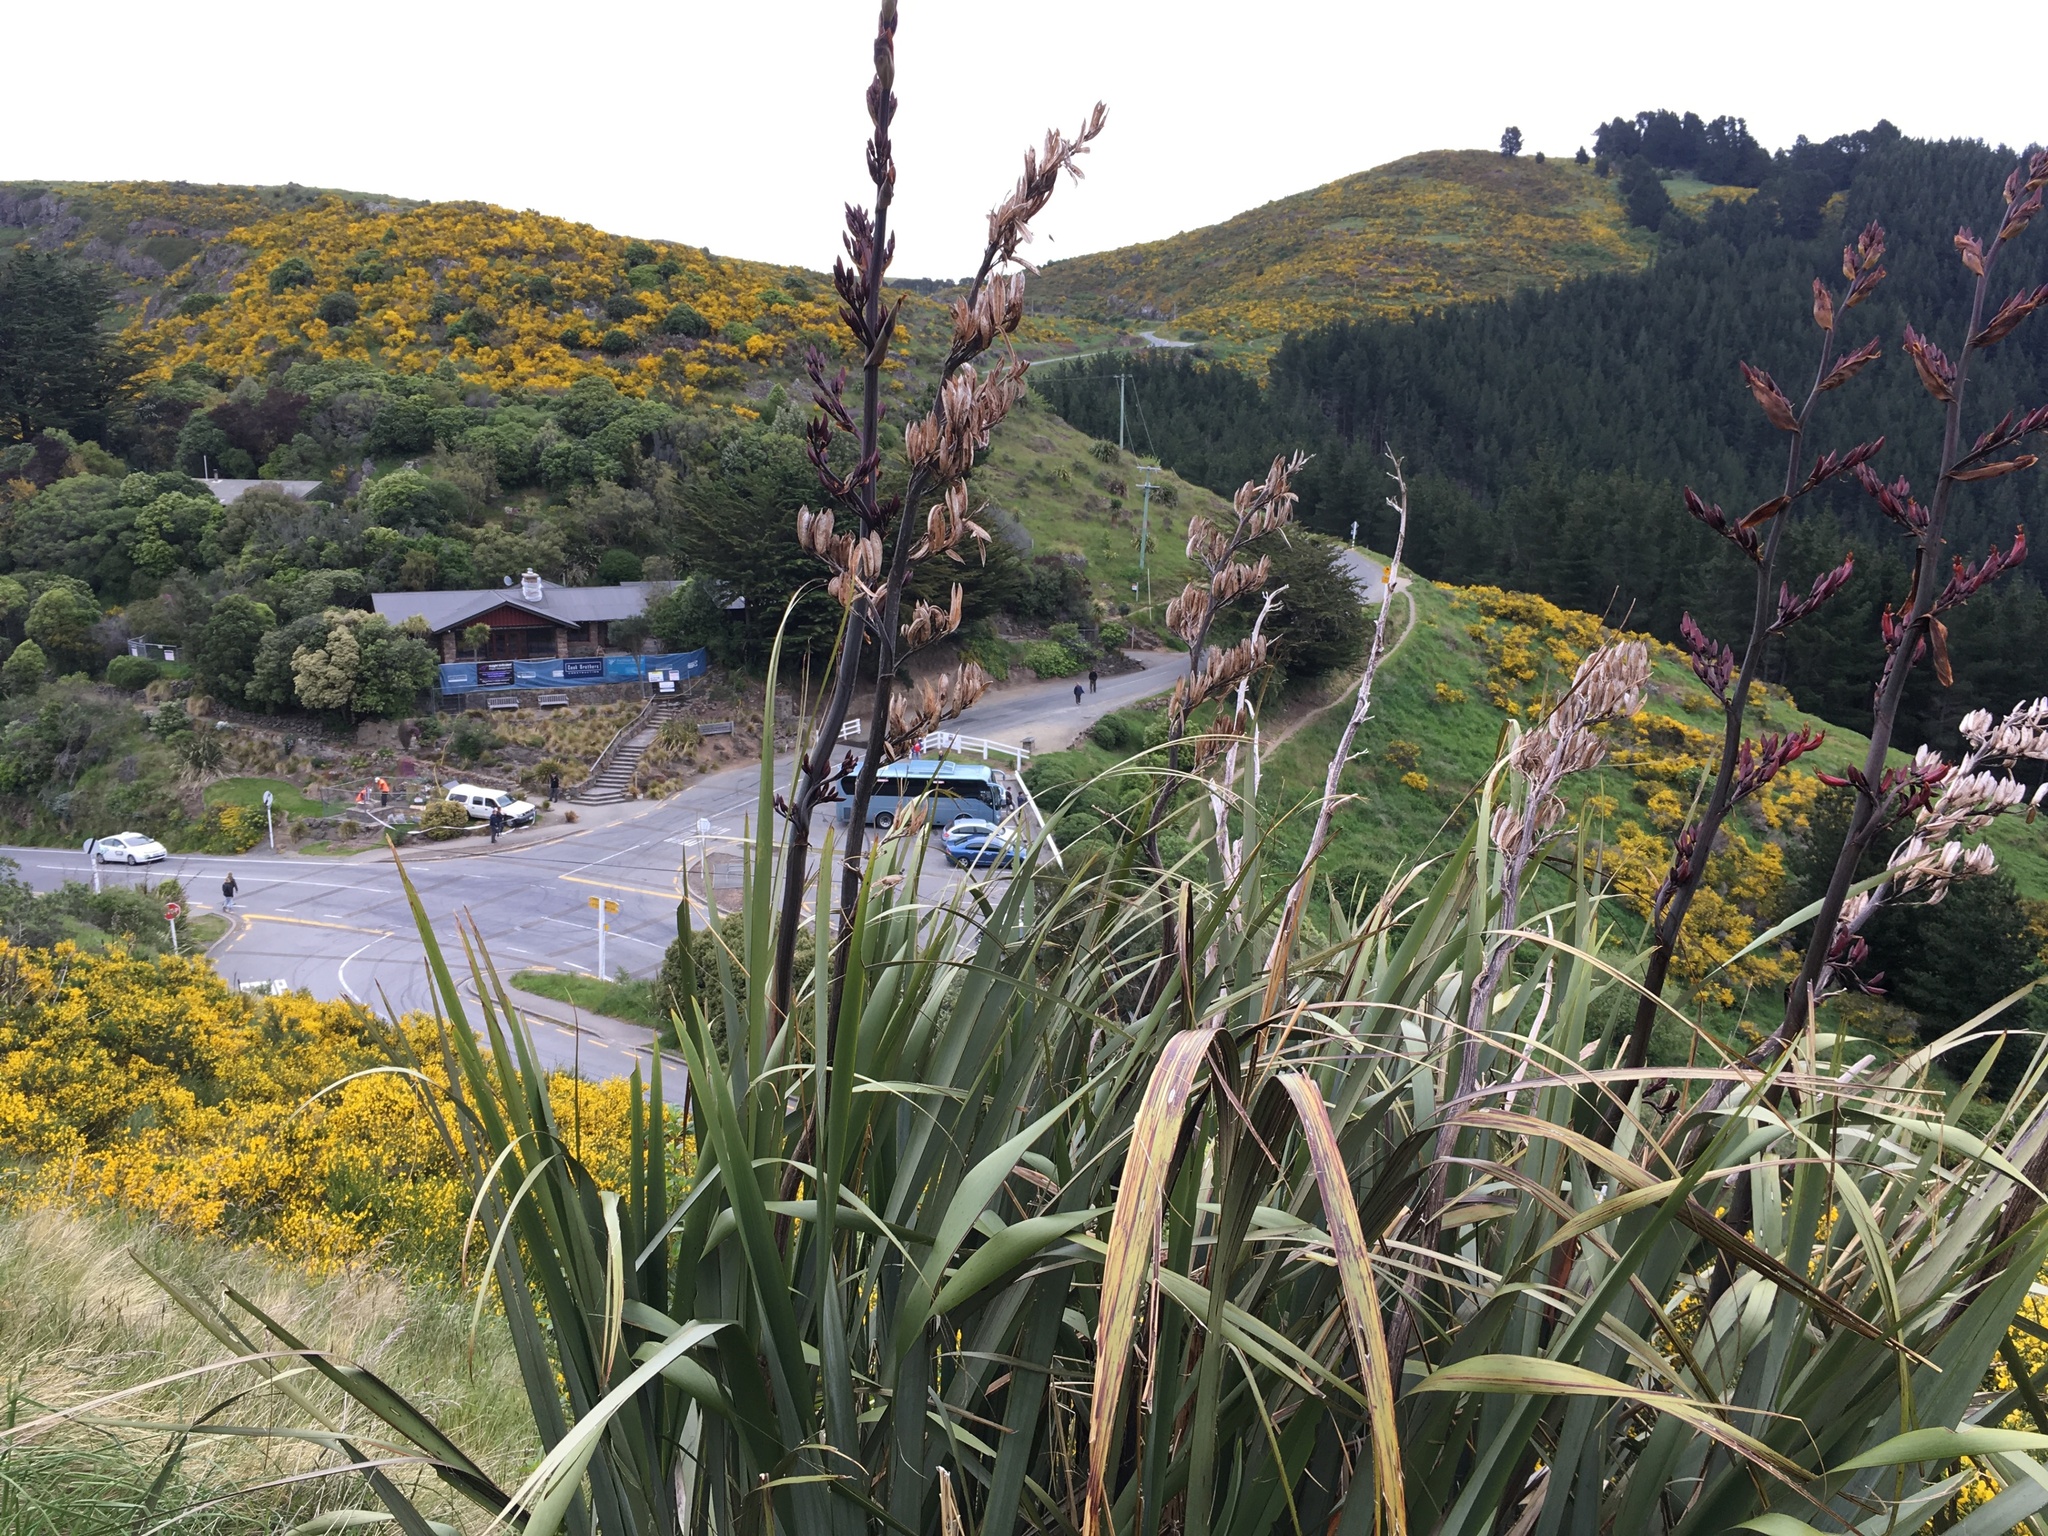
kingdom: Plantae
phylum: Tracheophyta
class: Liliopsida
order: Asparagales
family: Asphodelaceae
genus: Phormium
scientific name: Phormium tenax
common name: New zealand flax
